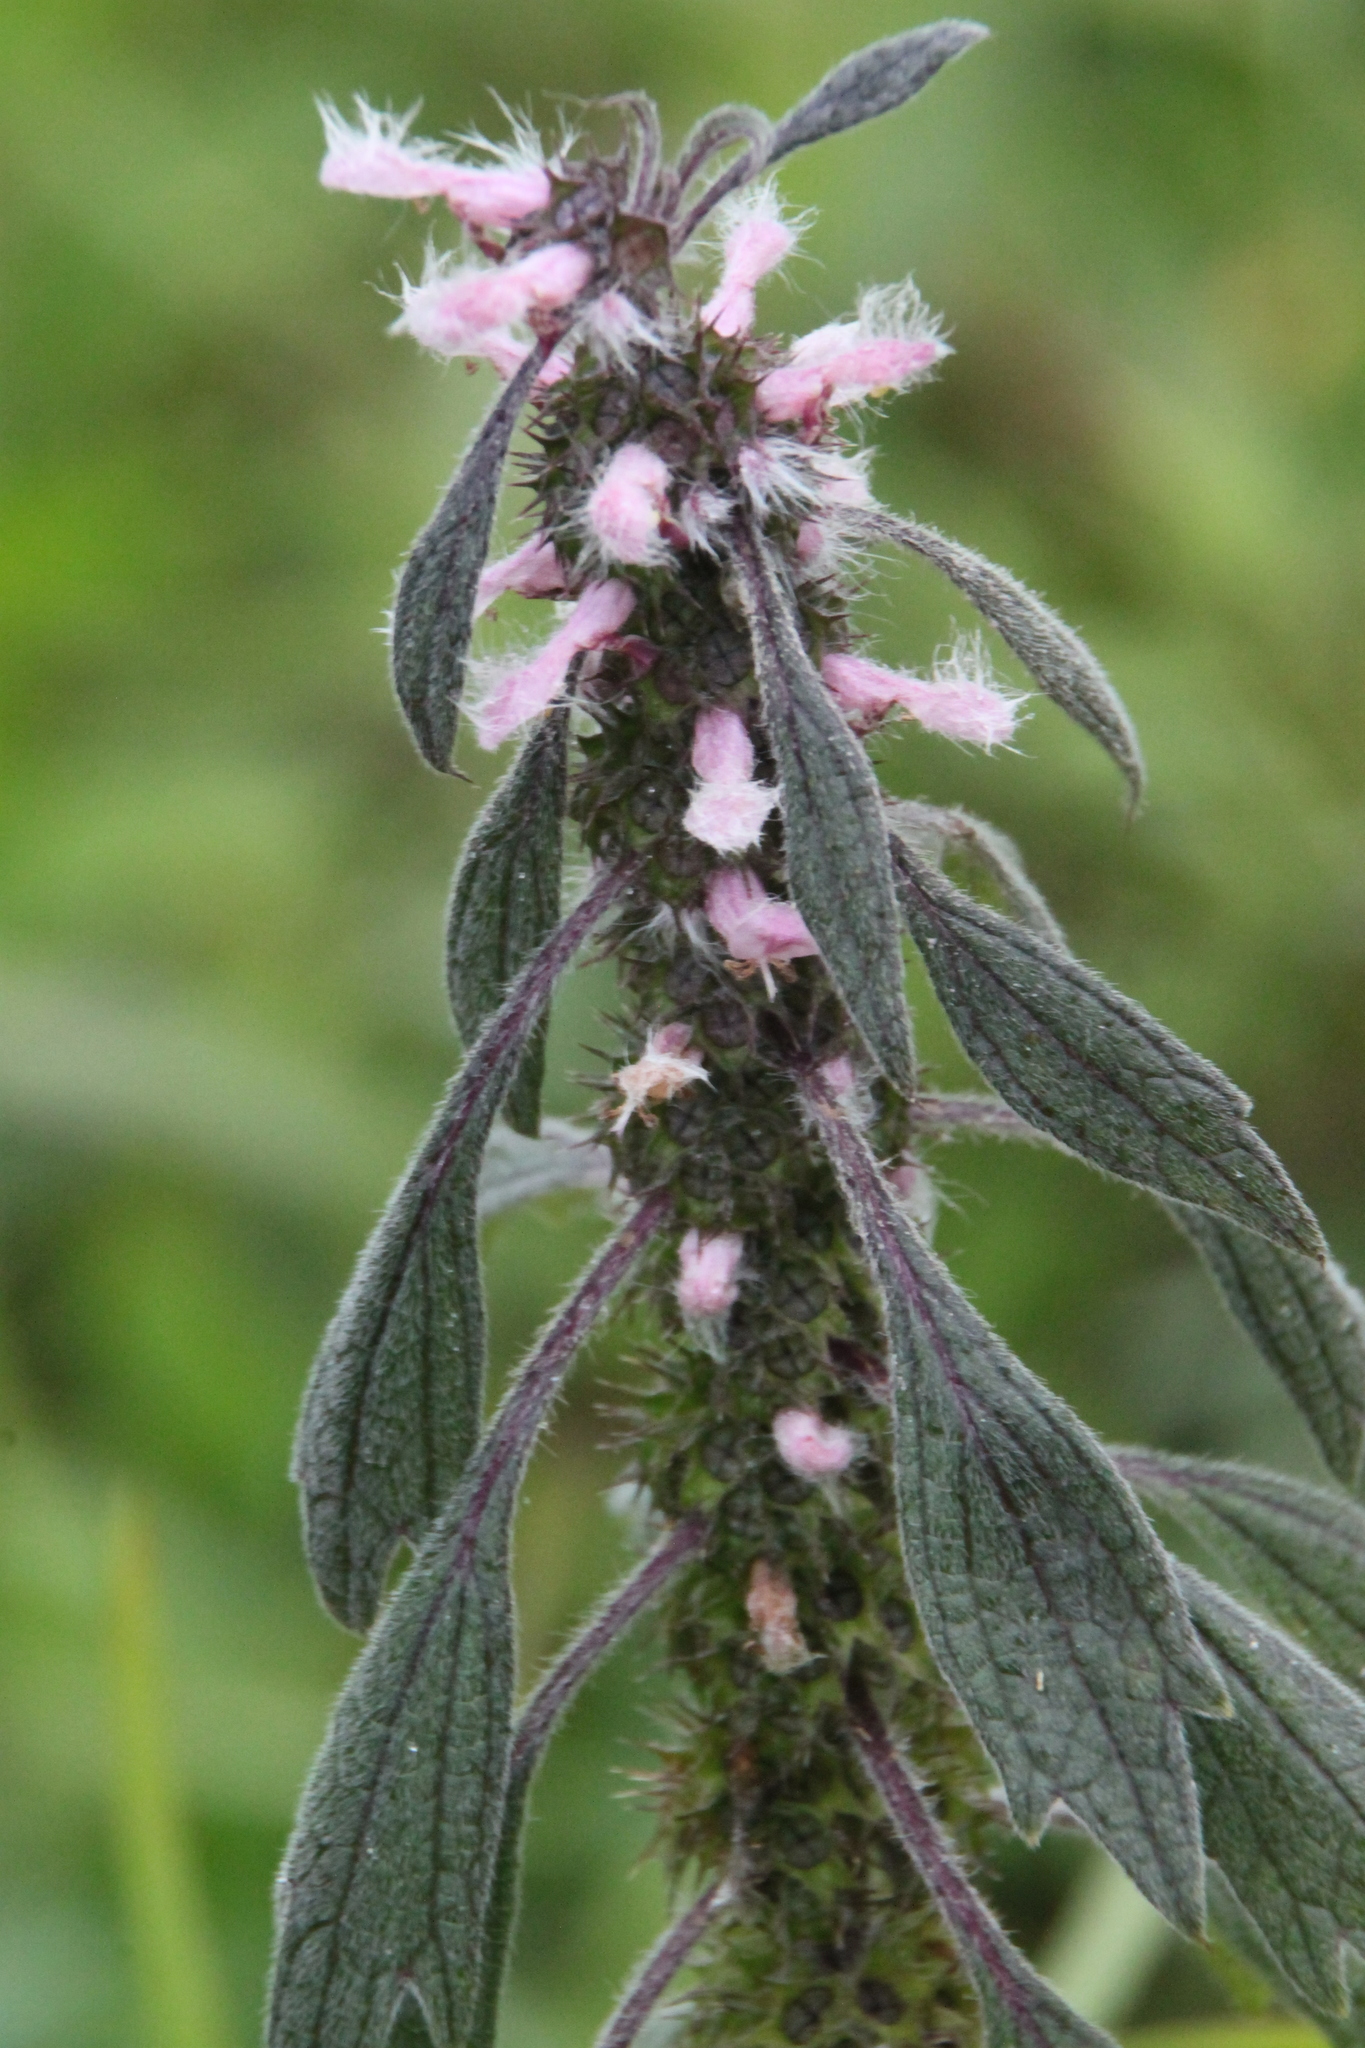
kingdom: Plantae
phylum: Tracheophyta
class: Magnoliopsida
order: Lamiales
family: Lamiaceae
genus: Leonurus
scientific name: Leonurus quinquelobatus
